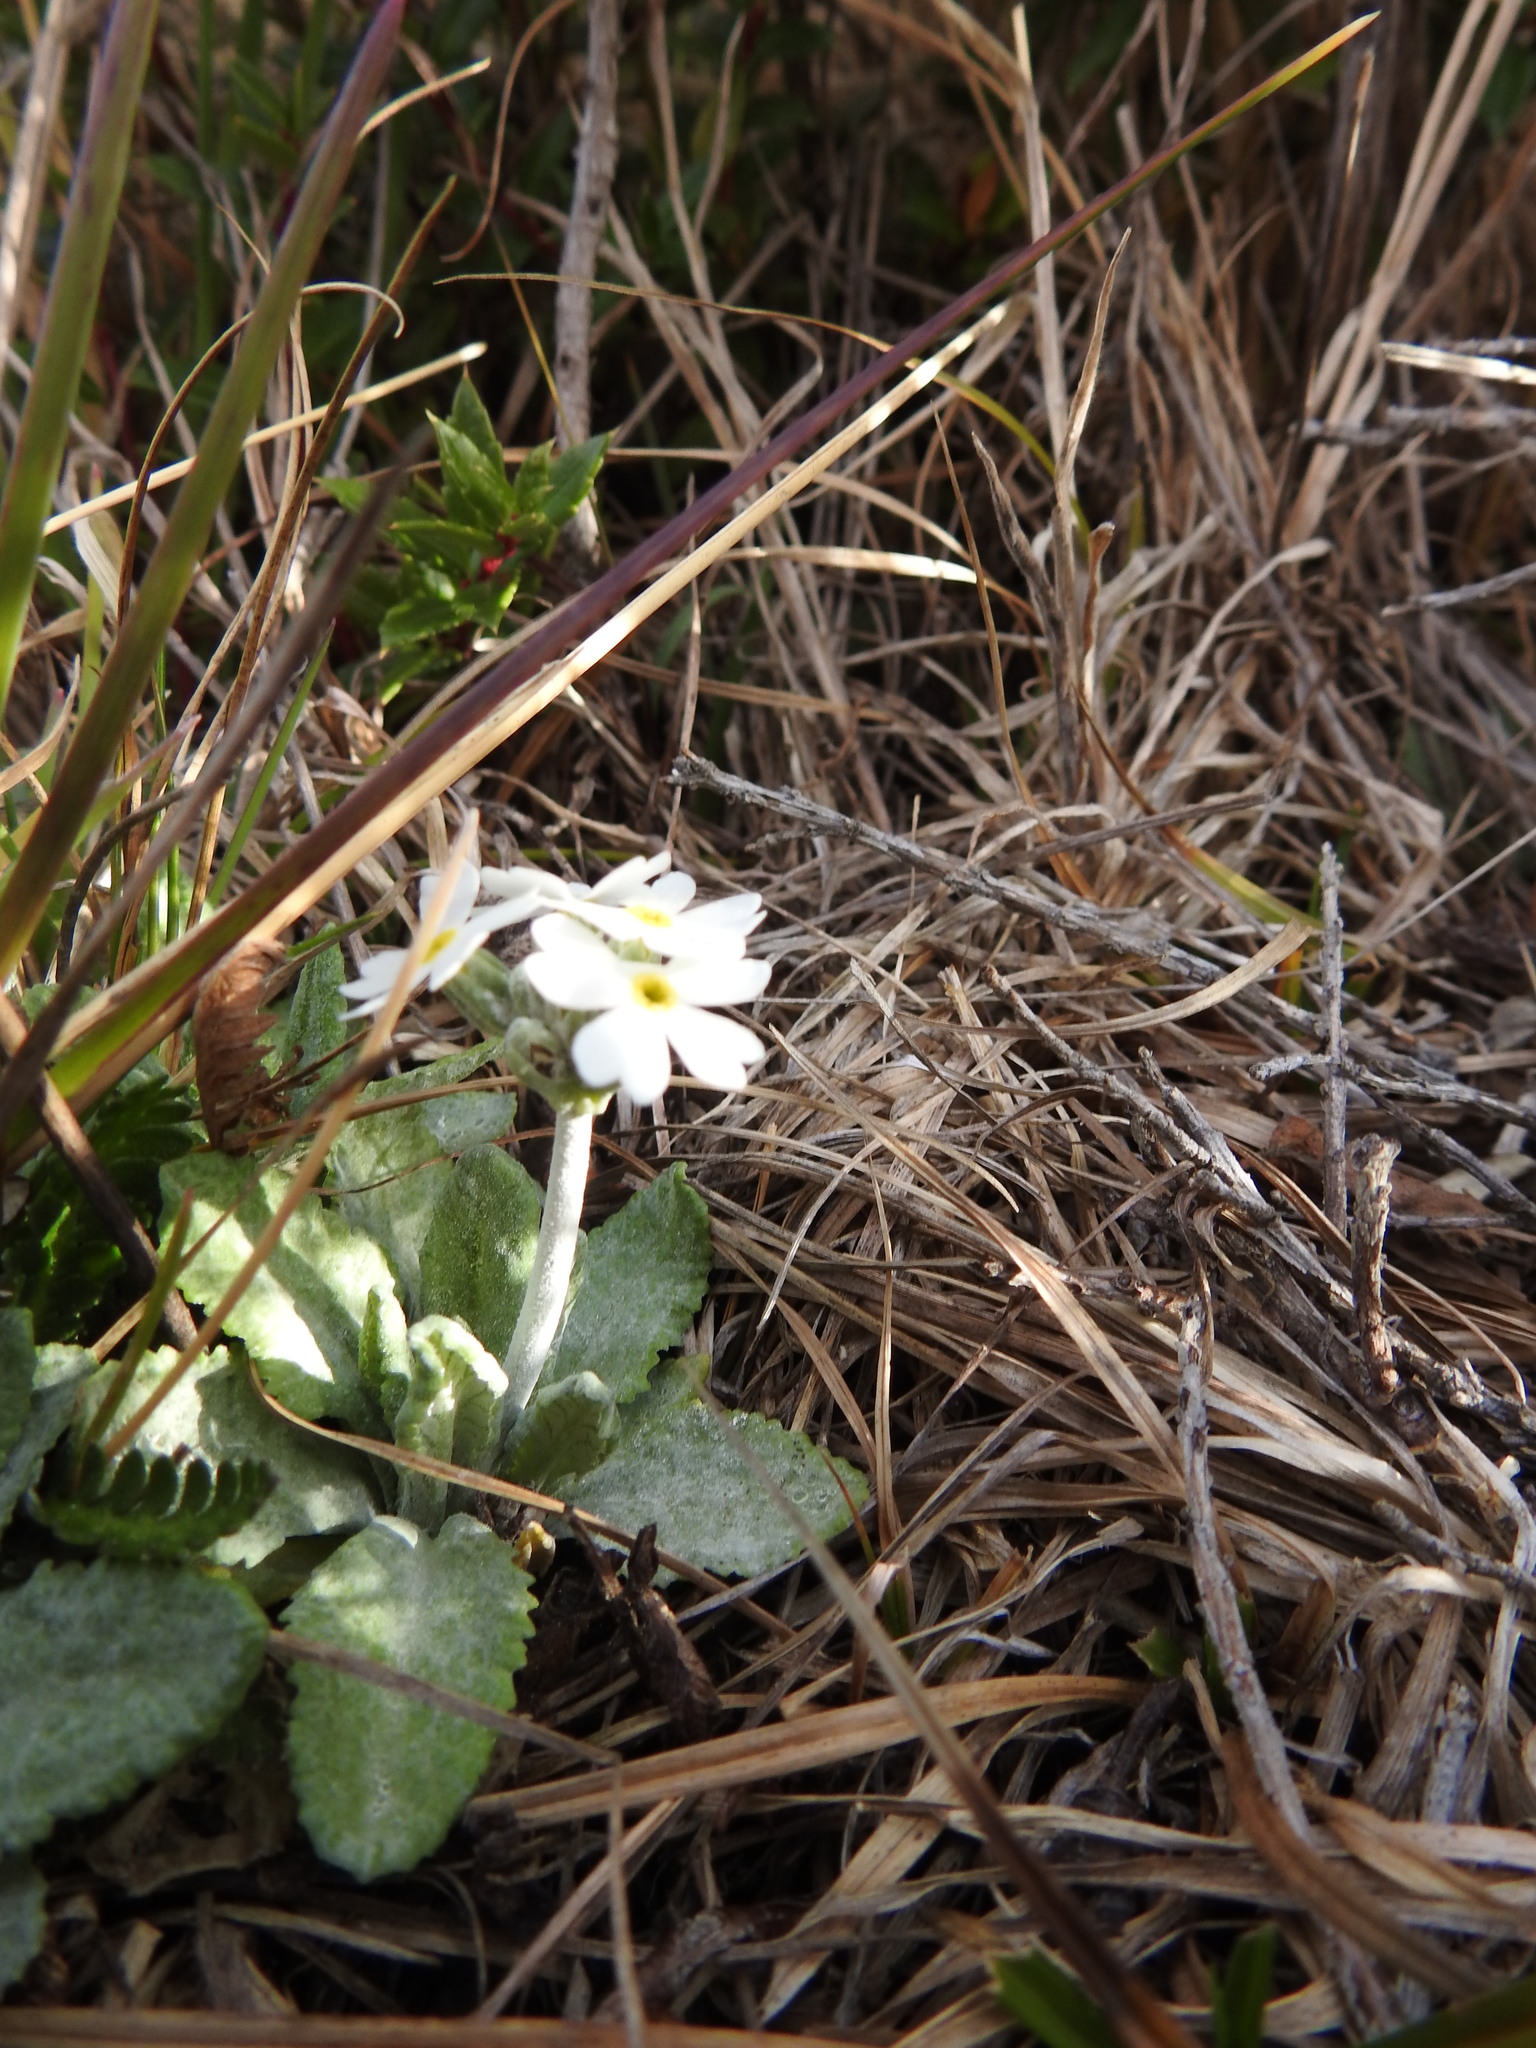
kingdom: Plantae
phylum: Tracheophyta
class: Magnoliopsida
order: Ericales
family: Primulaceae
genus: Primula
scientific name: Primula magellanica
